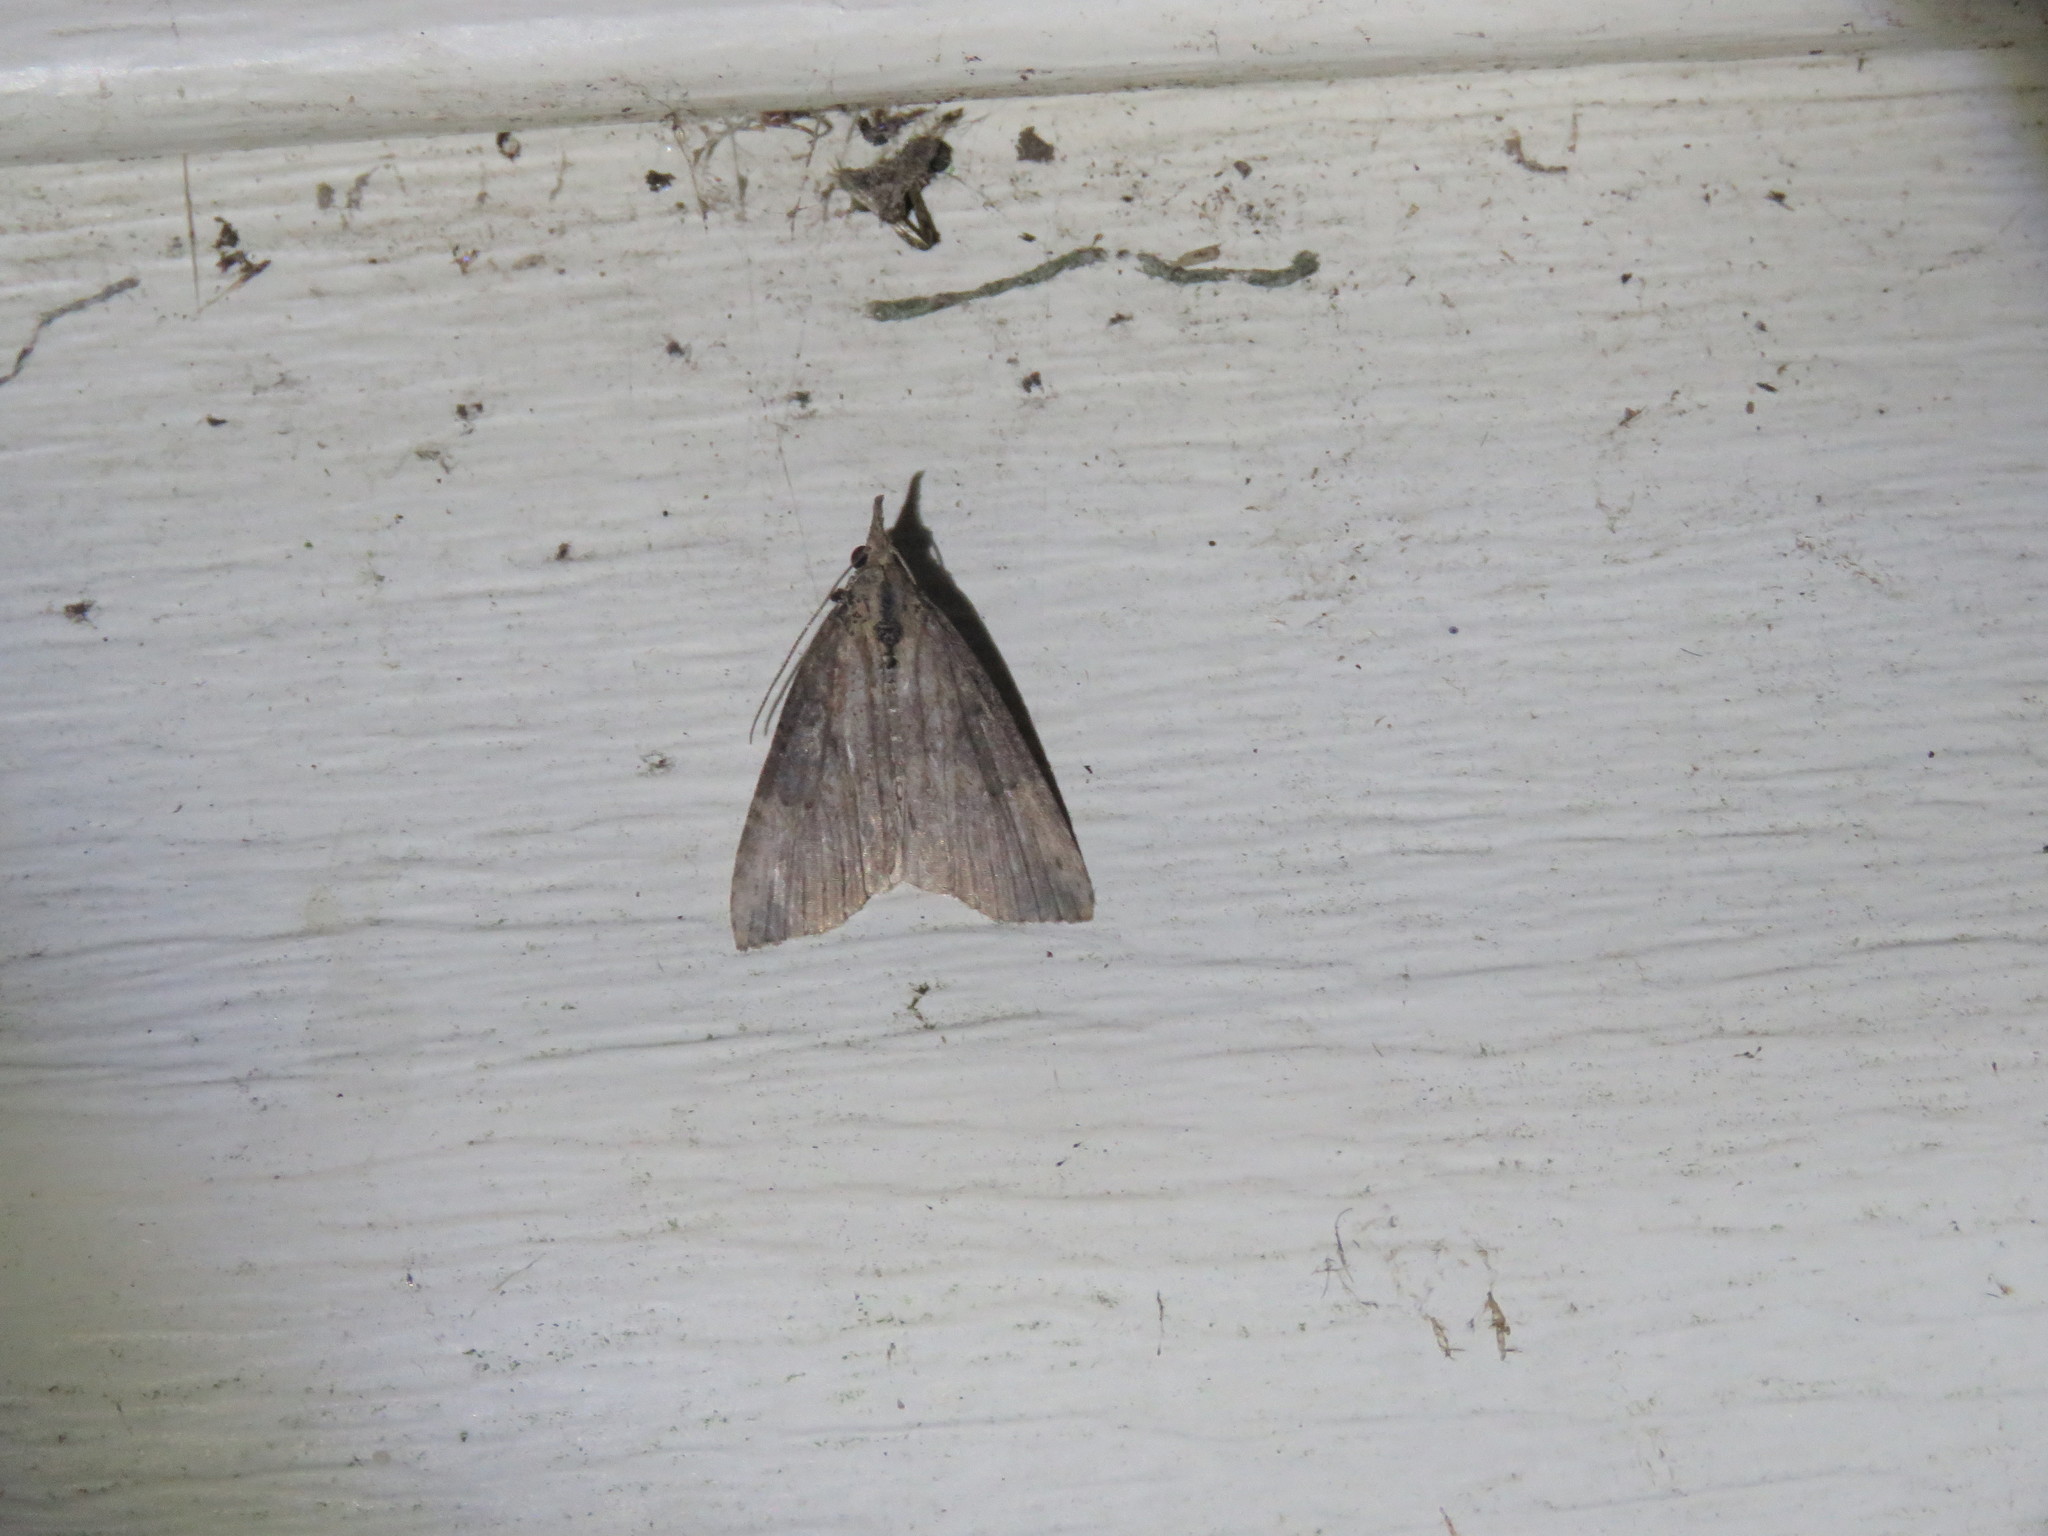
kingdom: Animalia
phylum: Arthropoda
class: Insecta
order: Lepidoptera
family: Erebidae
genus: Hypena
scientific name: Hypena humuli
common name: Hop vine snout
